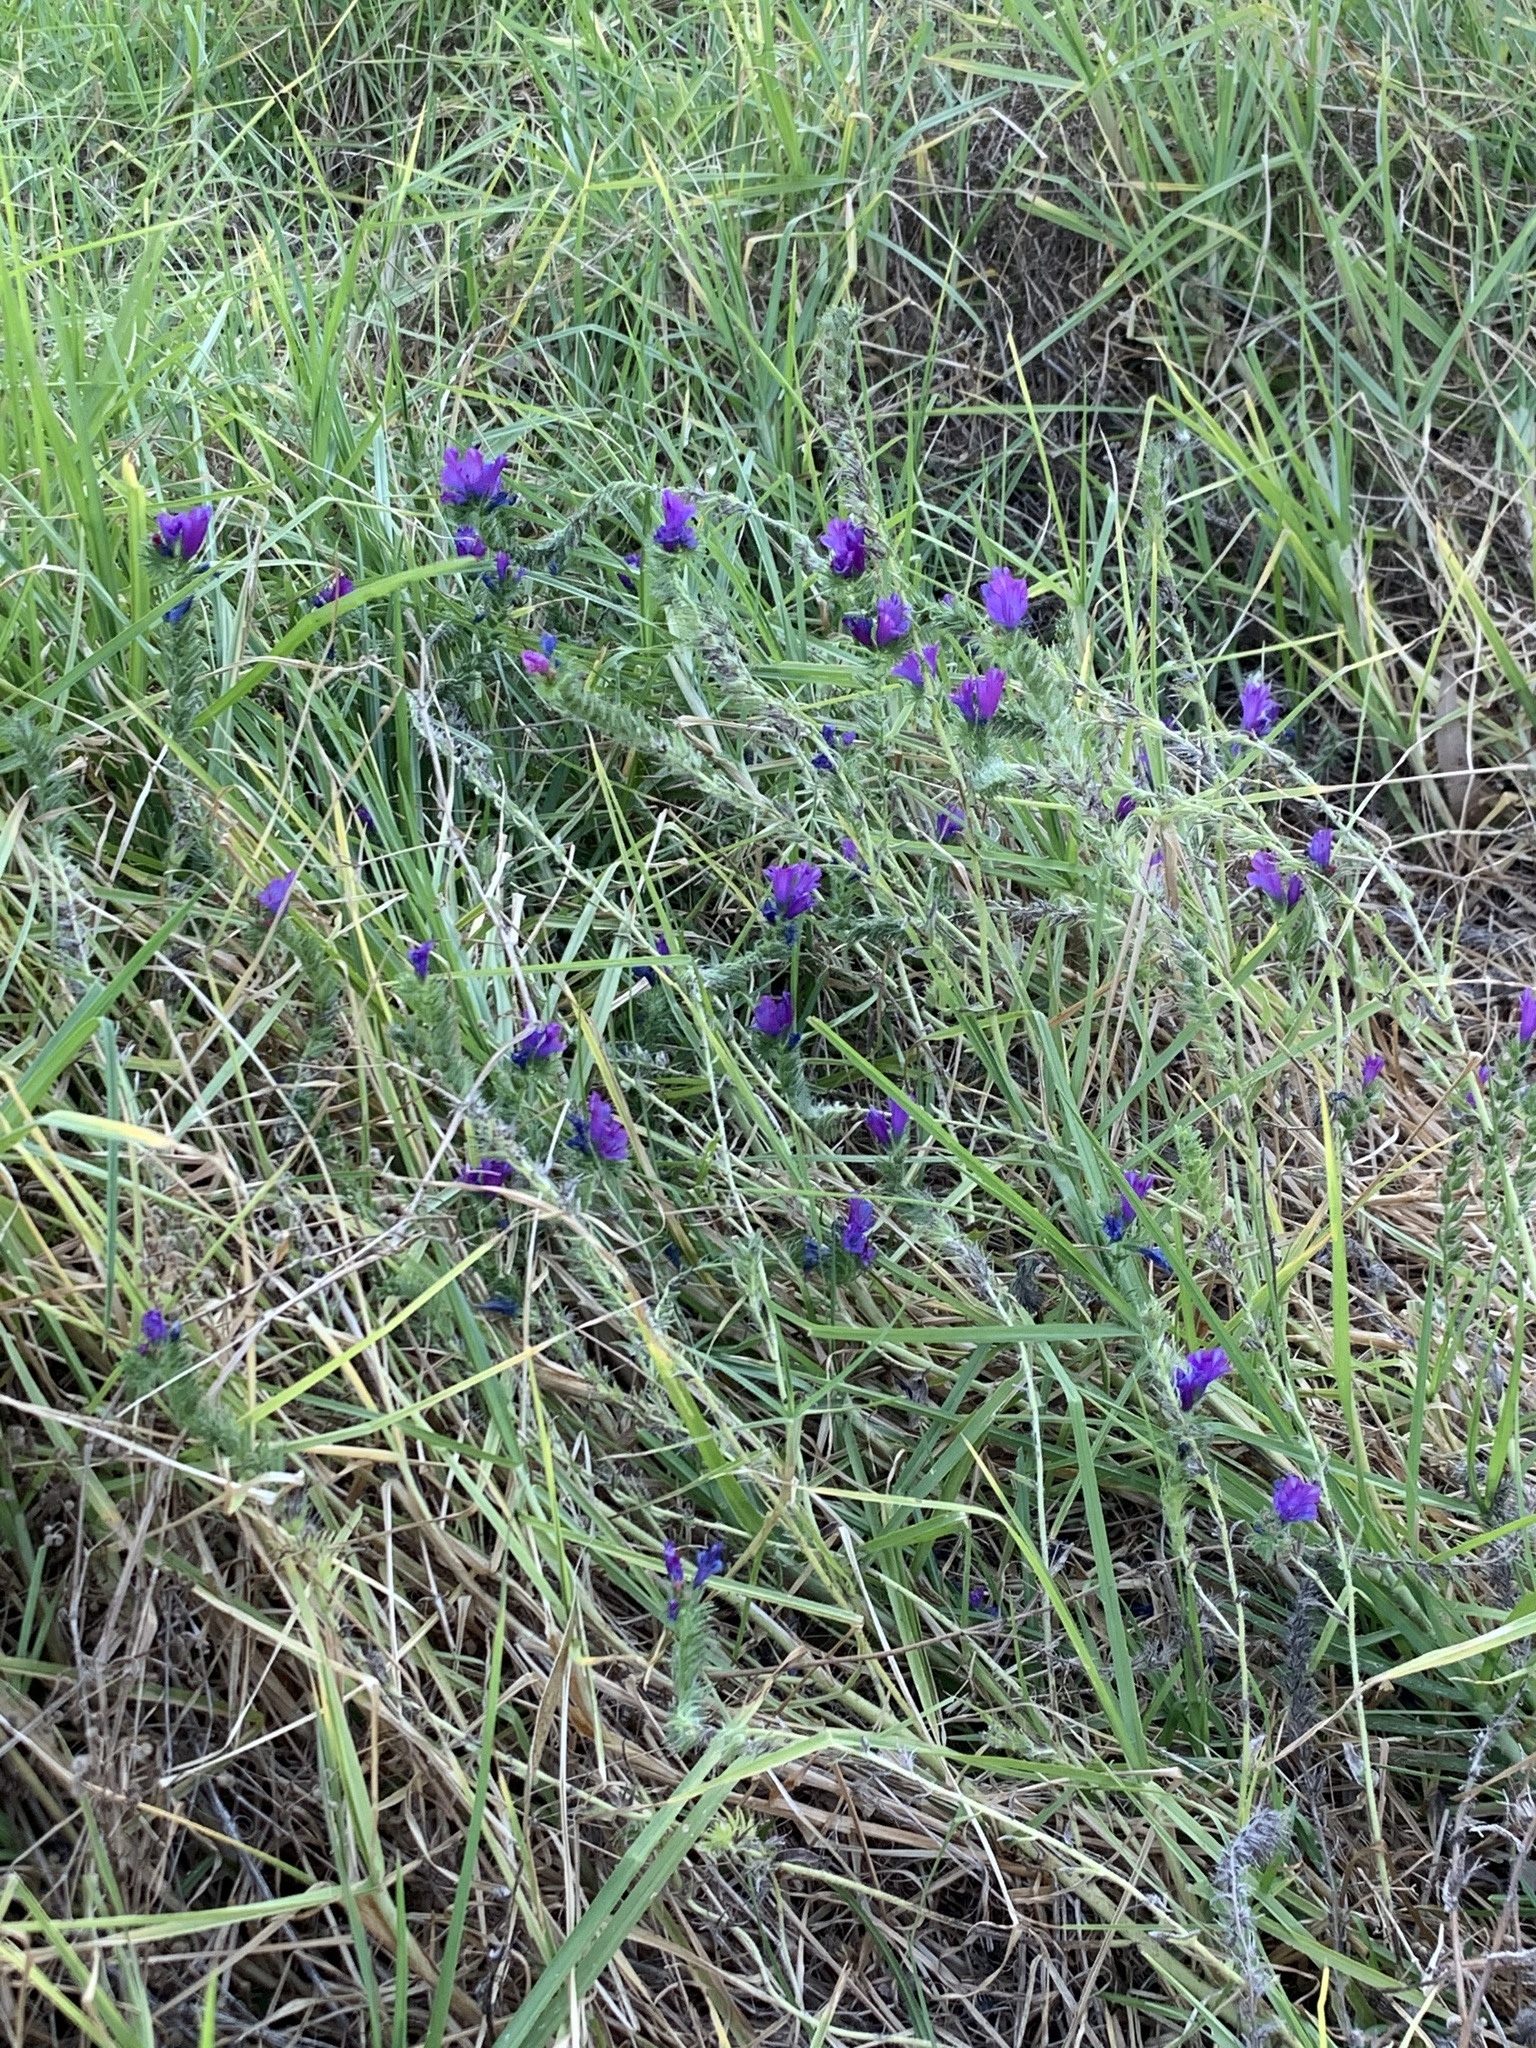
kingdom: Plantae
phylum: Tracheophyta
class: Magnoliopsida
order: Boraginales
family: Boraginaceae
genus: Echium
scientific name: Echium plantagineum
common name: Purple viper's-bugloss
